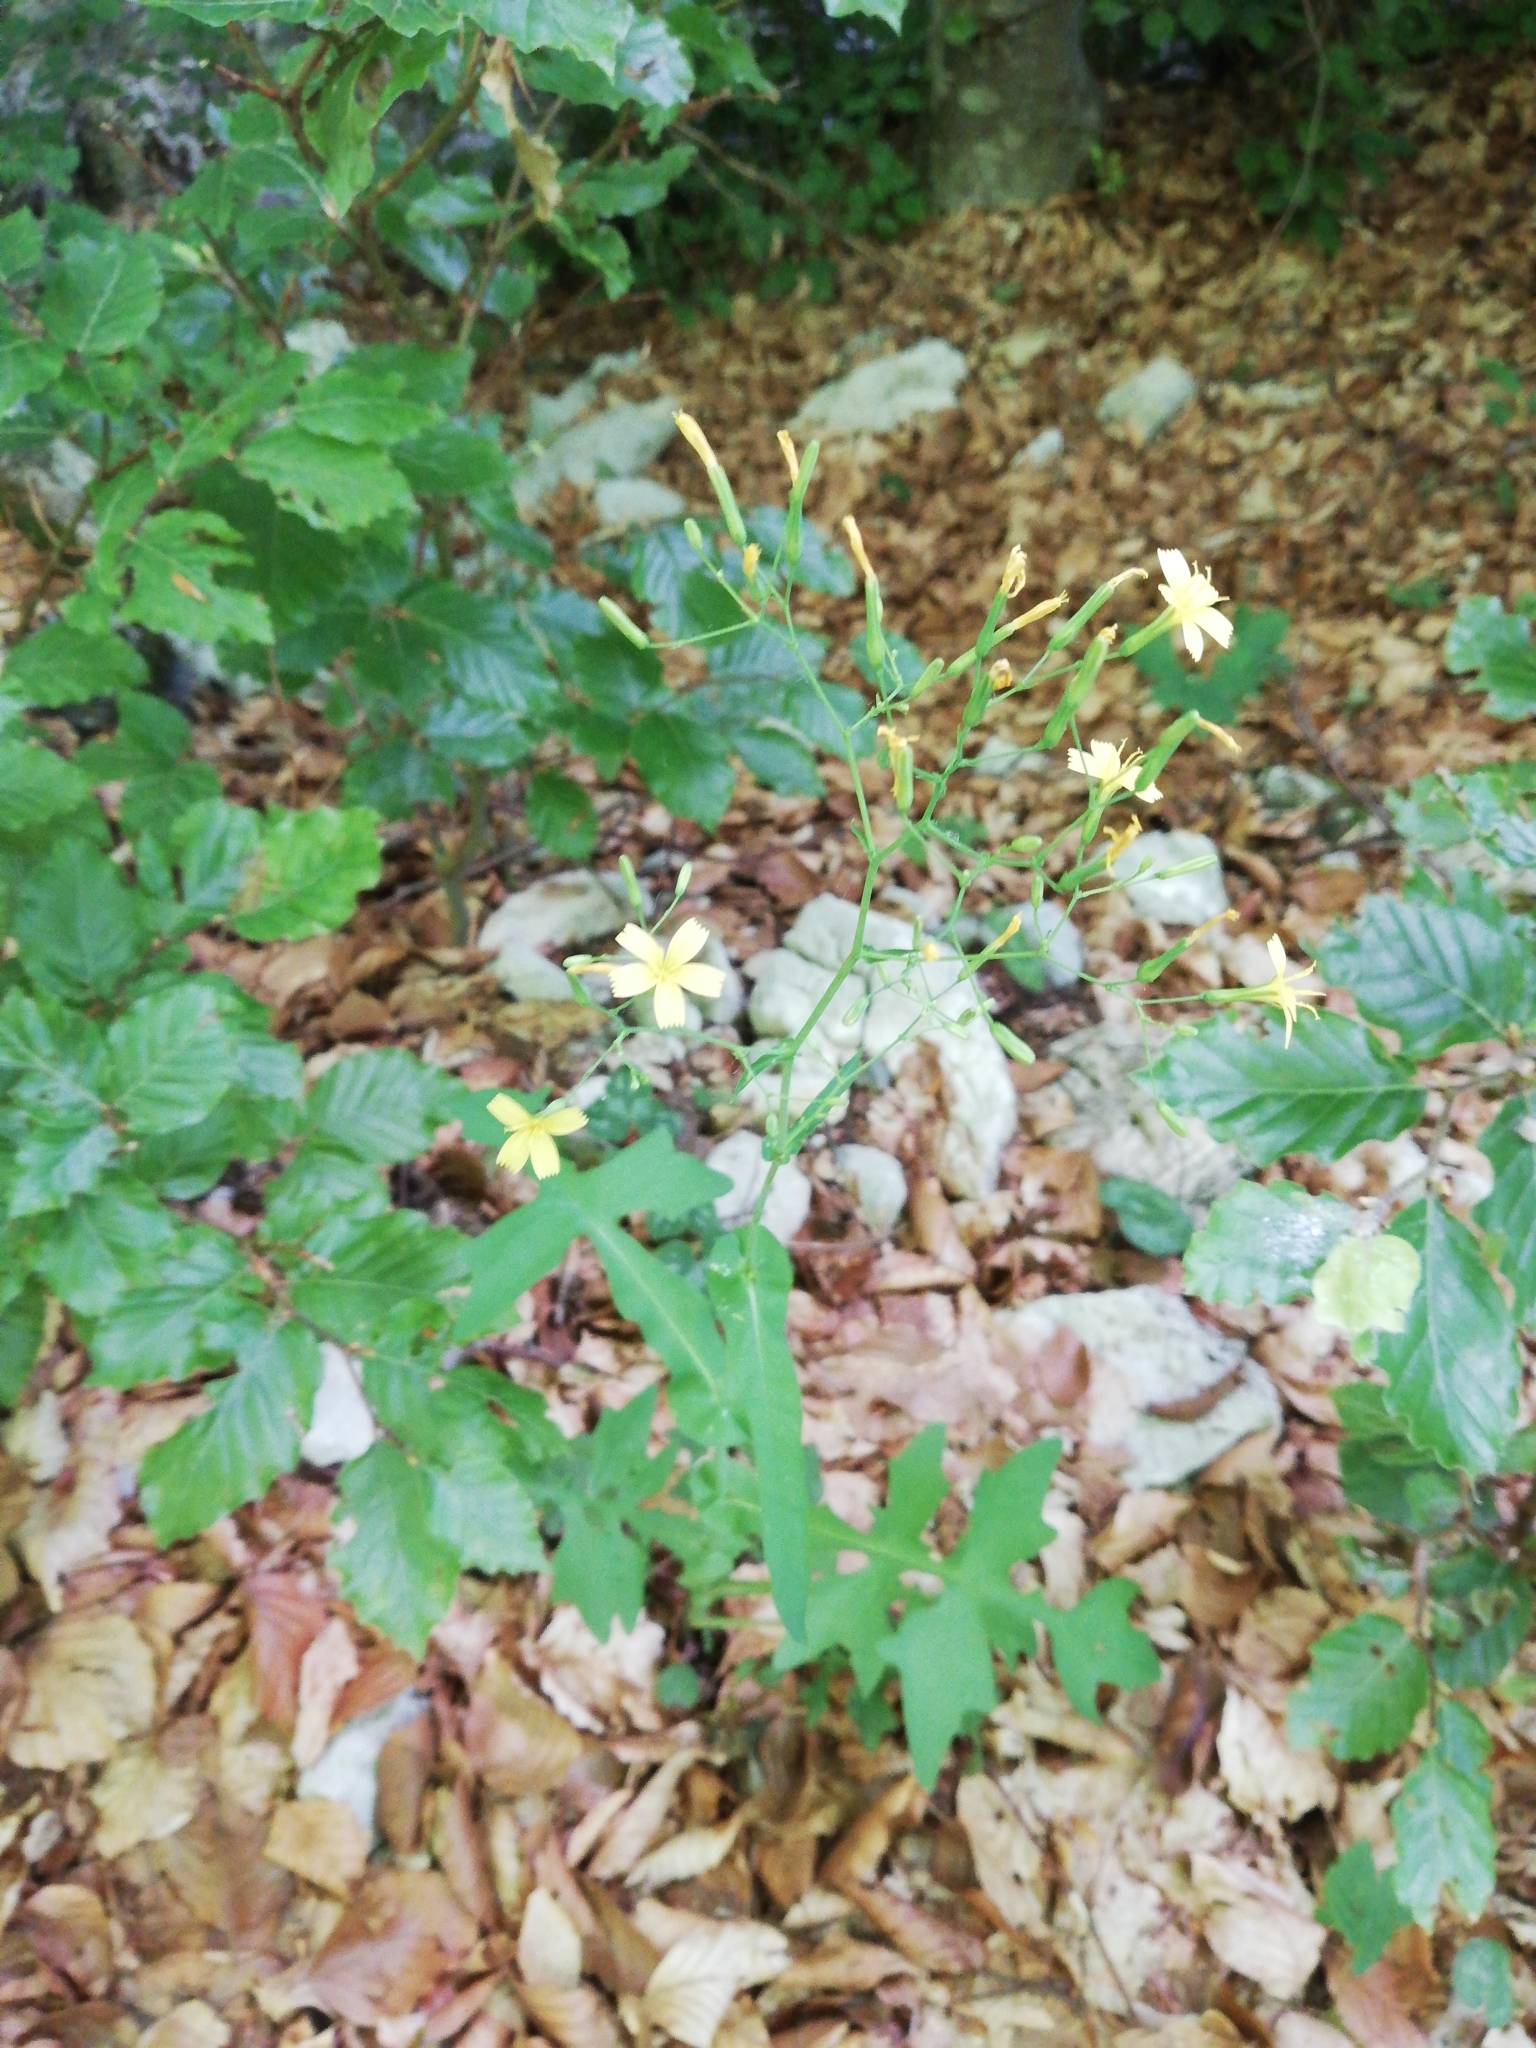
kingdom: Plantae
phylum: Tracheophyta
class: Magnoliopsida
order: Asterales
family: Asteraceae
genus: Mycelis
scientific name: Mycelis muralis
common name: Wall lettuce
